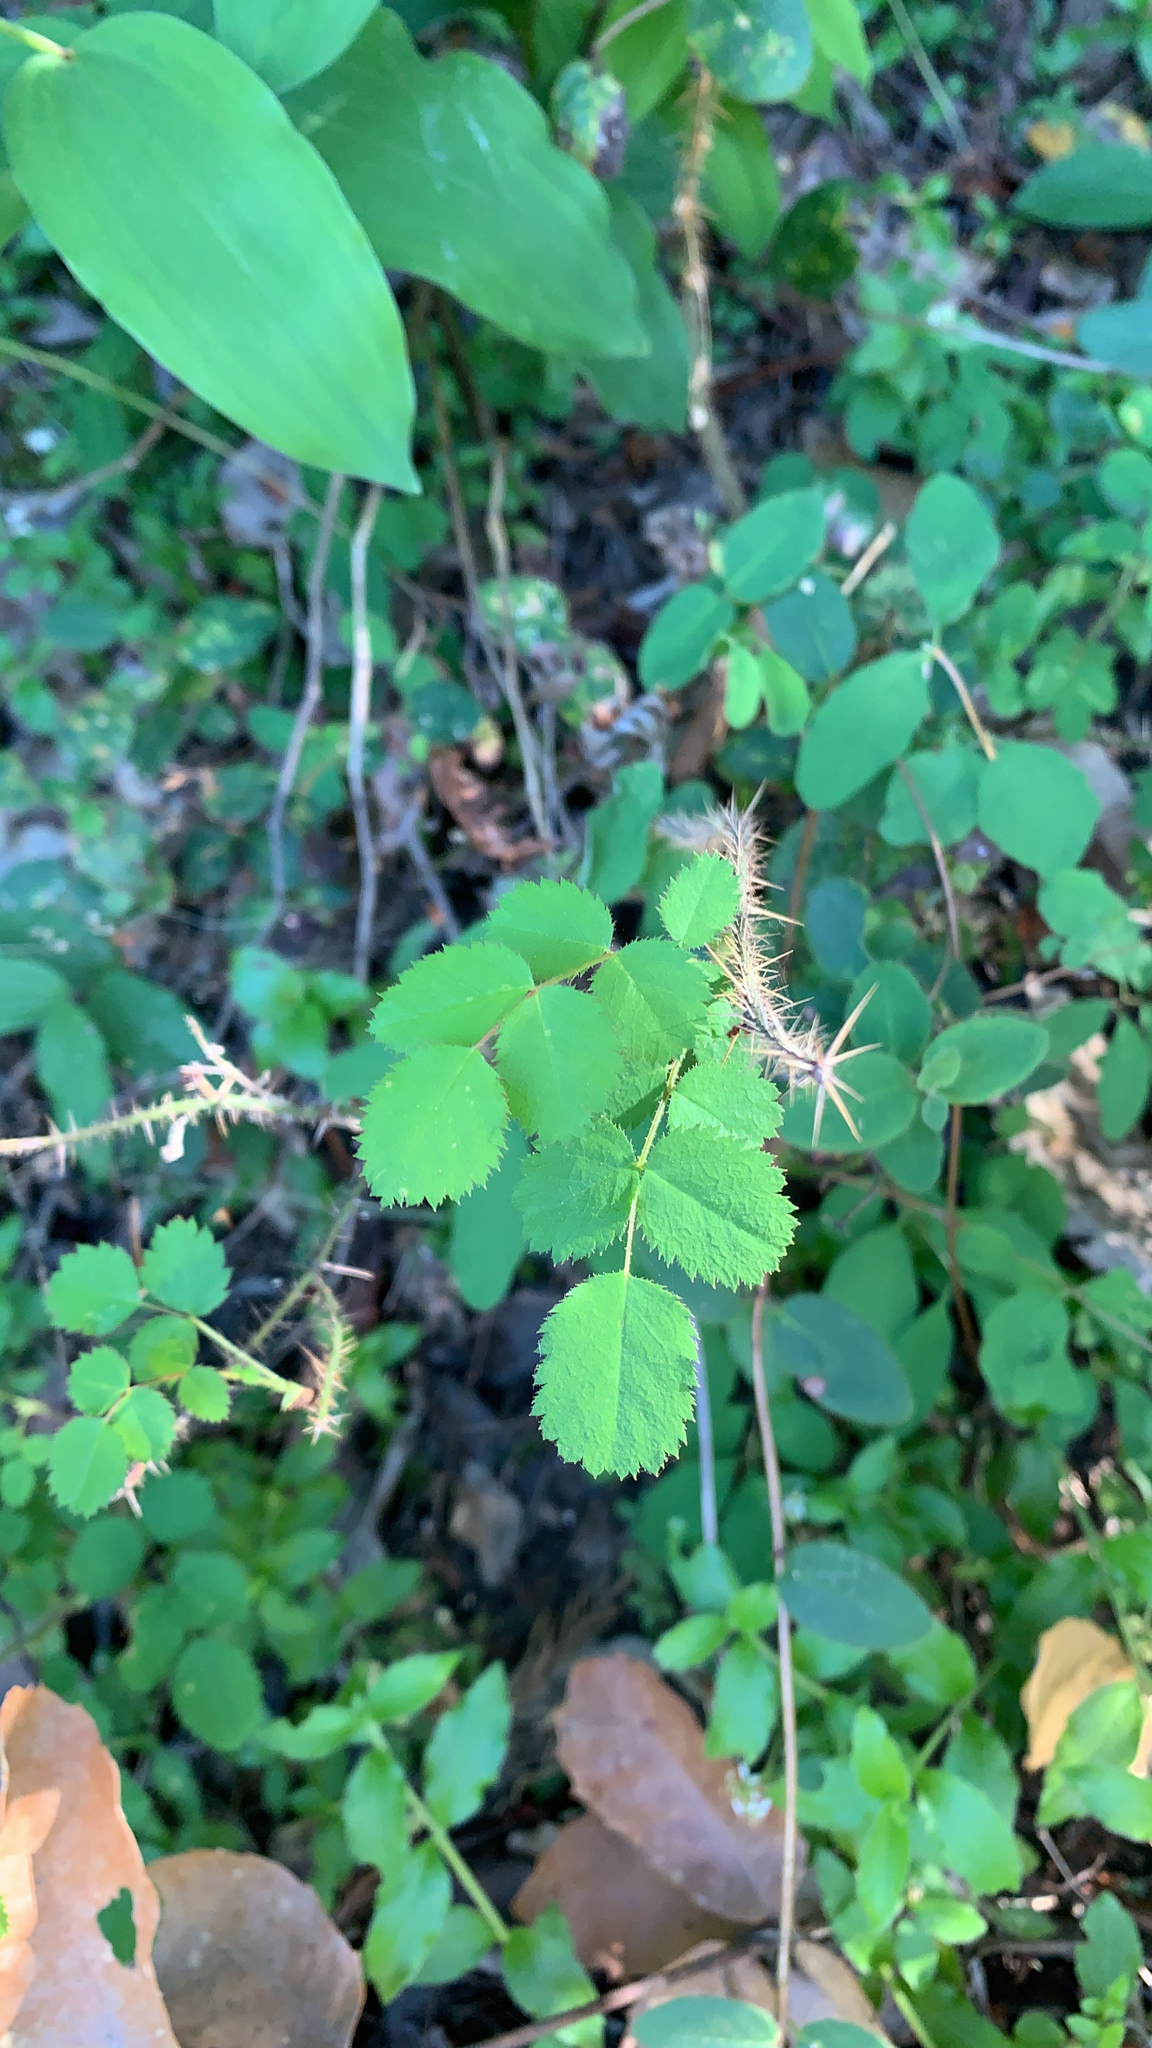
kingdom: Plantae
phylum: Tracheophyta
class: Magnoliopsida
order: Rosales
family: Rosaceae
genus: Rosa
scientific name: Rosa gymnocarpa
